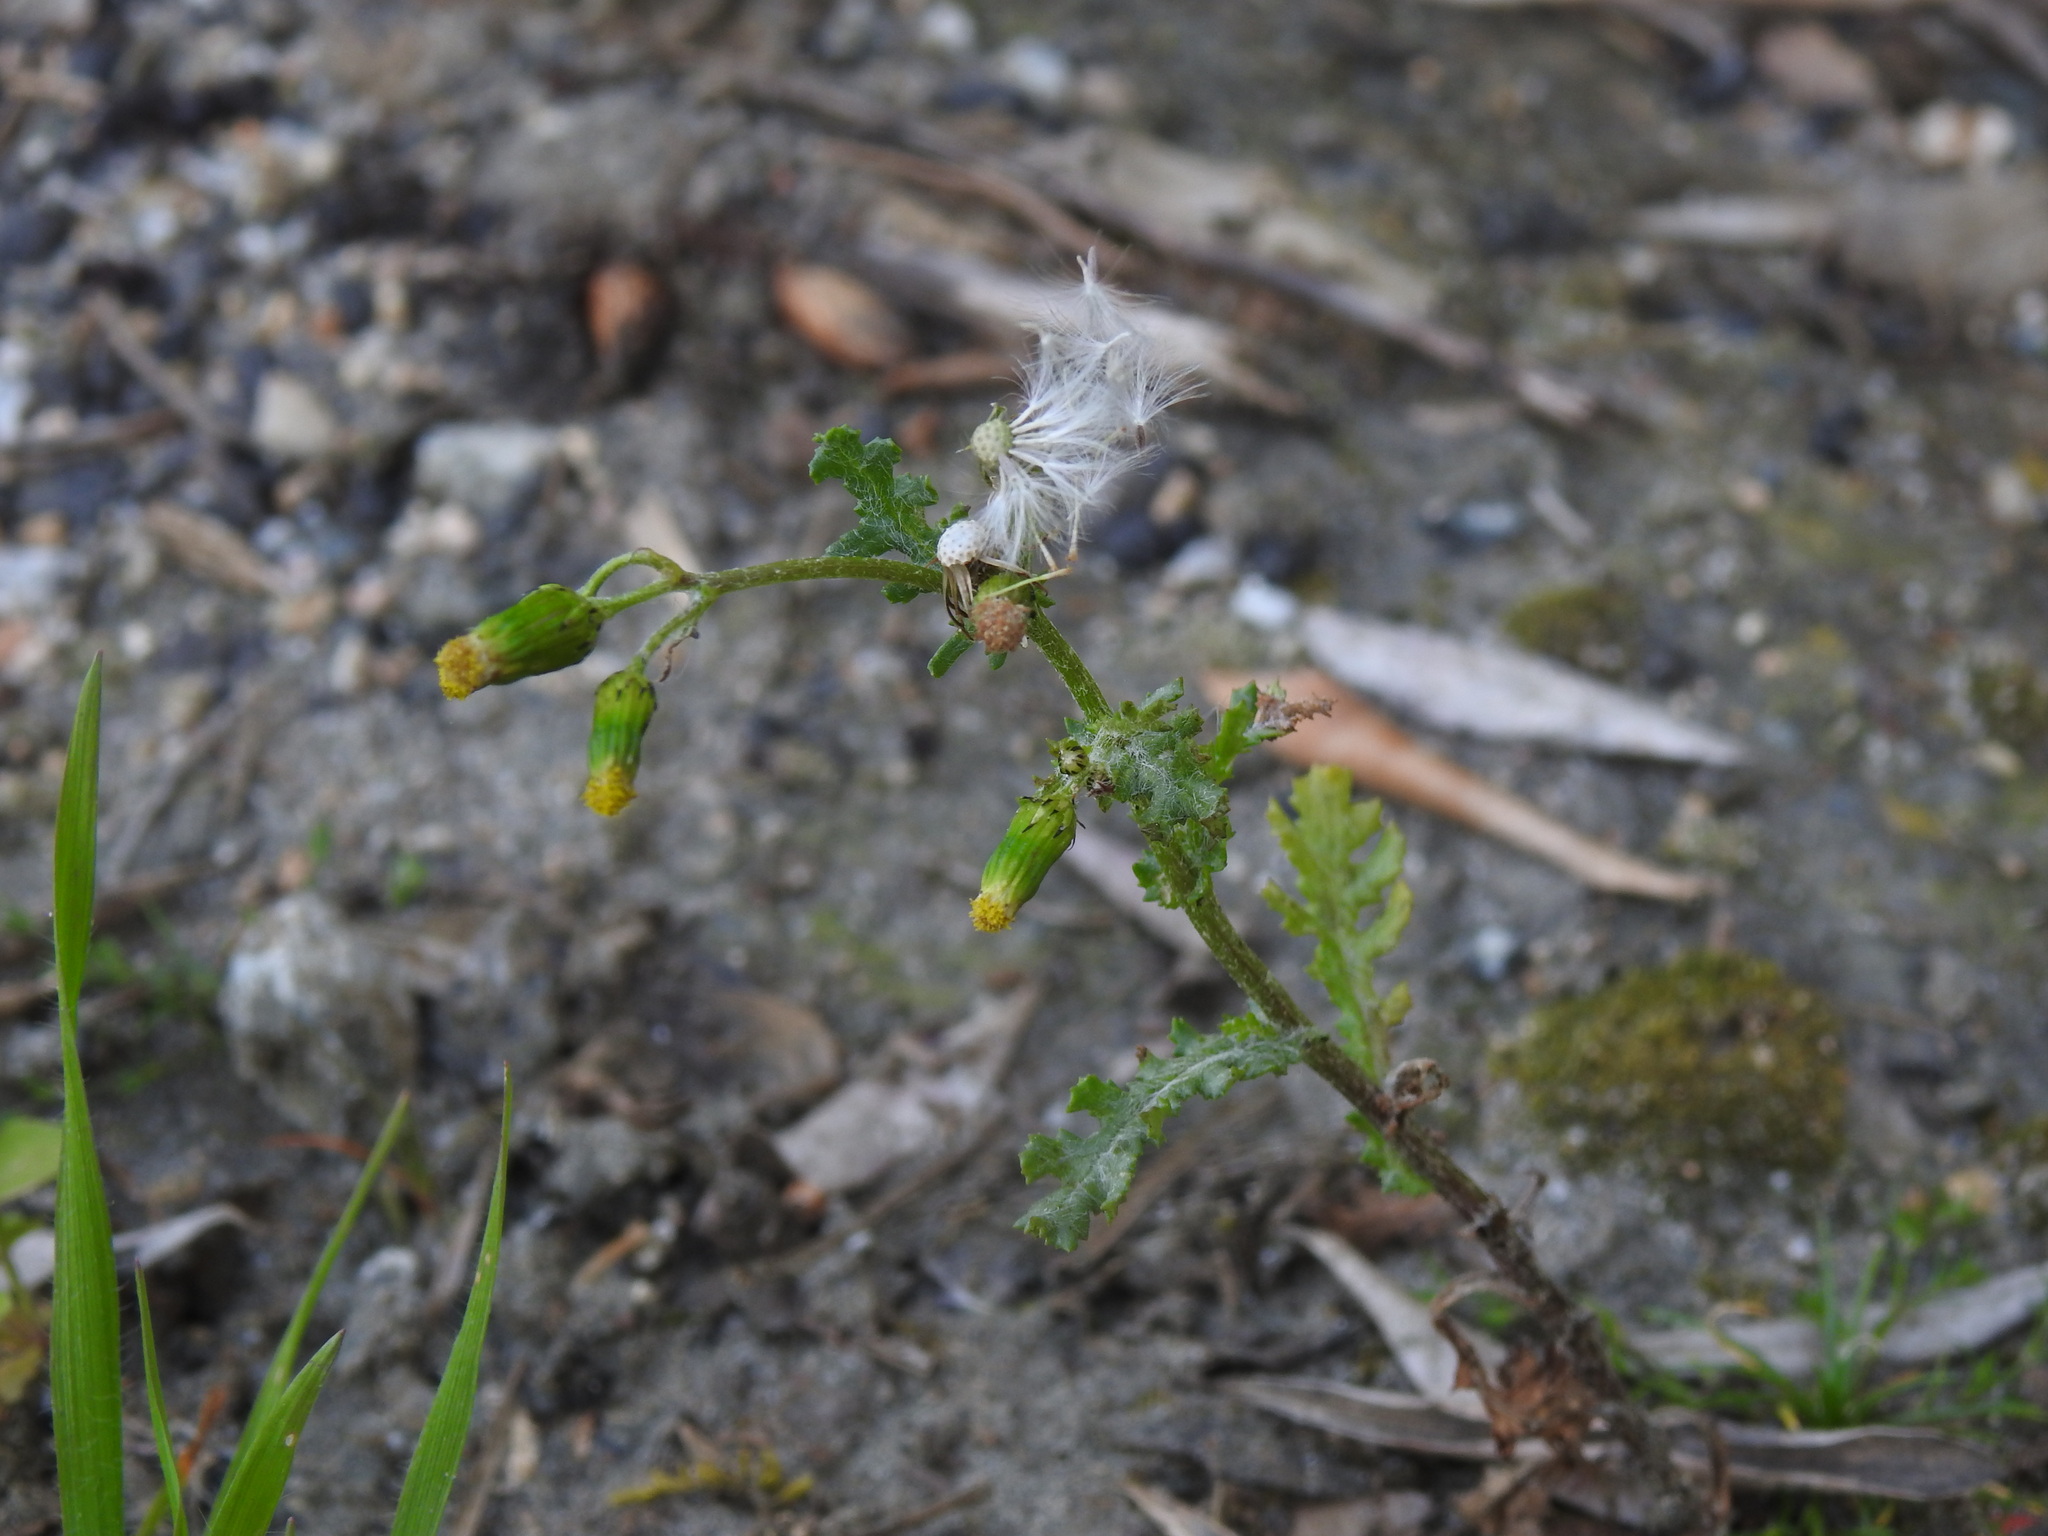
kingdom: Plantae
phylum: Tracheophyta
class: Magnoliopsida
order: Asterales
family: Asteraceae
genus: Senecio
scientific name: Senecio vulgaris
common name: Old-man-in-the-spring
